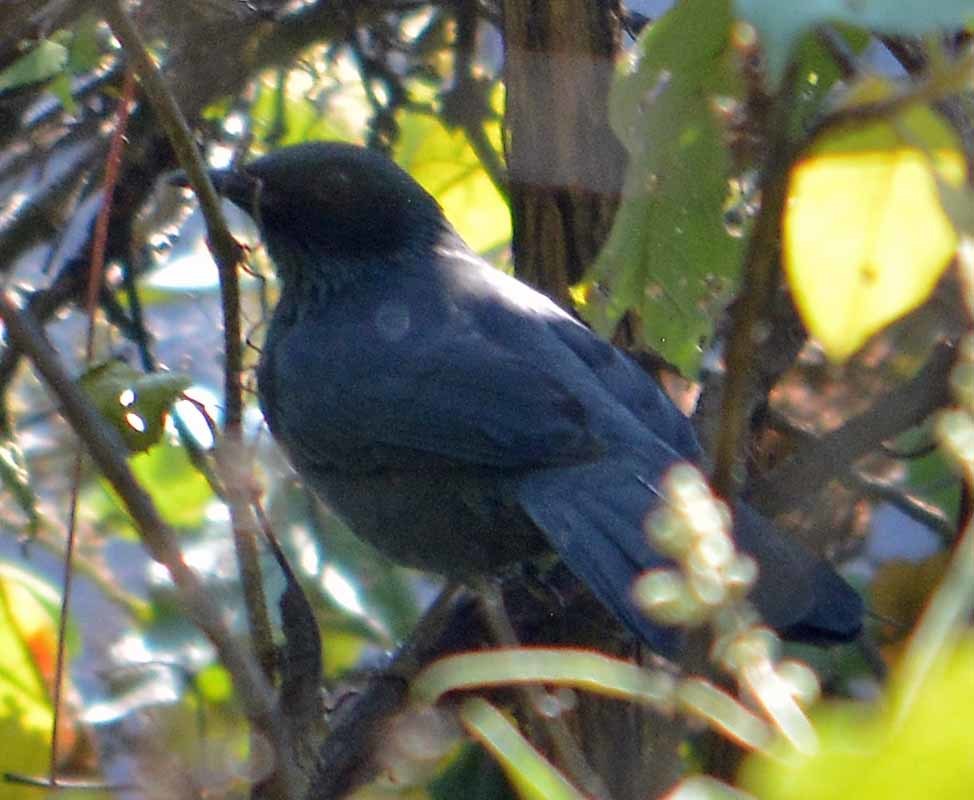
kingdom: Animalia
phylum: Chordata
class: Aves
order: Passeriformes
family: Mimidae
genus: Melanotis
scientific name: Melanotis caerulescens
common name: Blue mockingbird
